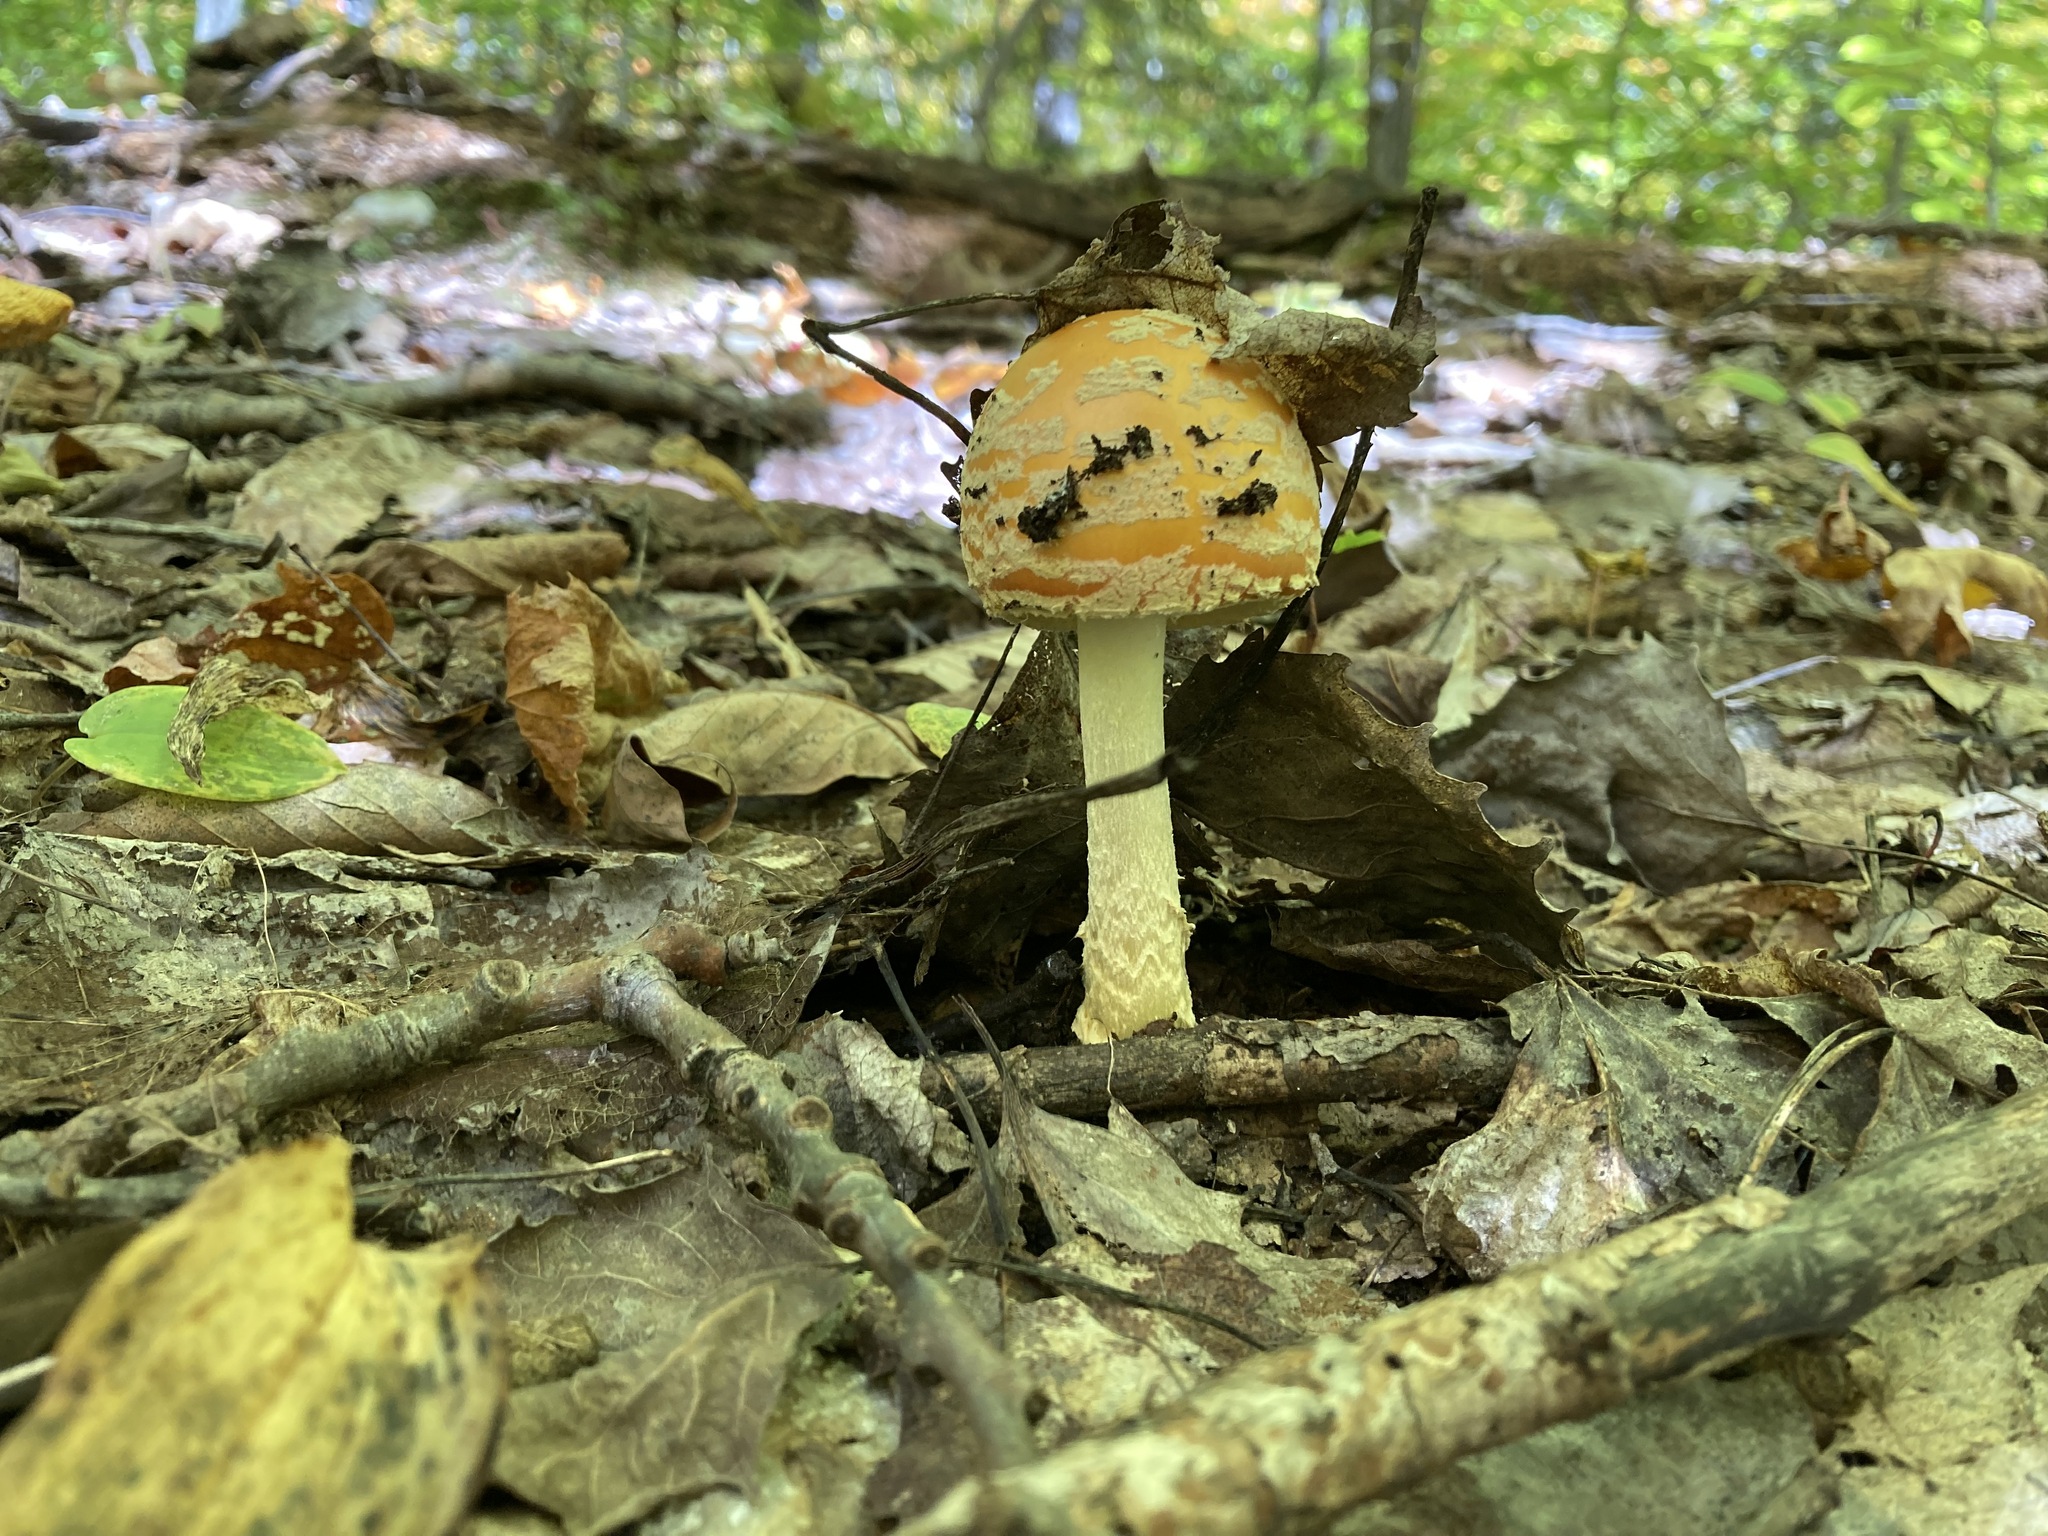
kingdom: Fungi
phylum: Basidiomycota
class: Agaricomycetes
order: Agaricales
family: Amanitaceae
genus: Amanita
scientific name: Amanita muscaria
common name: Fly agaric
